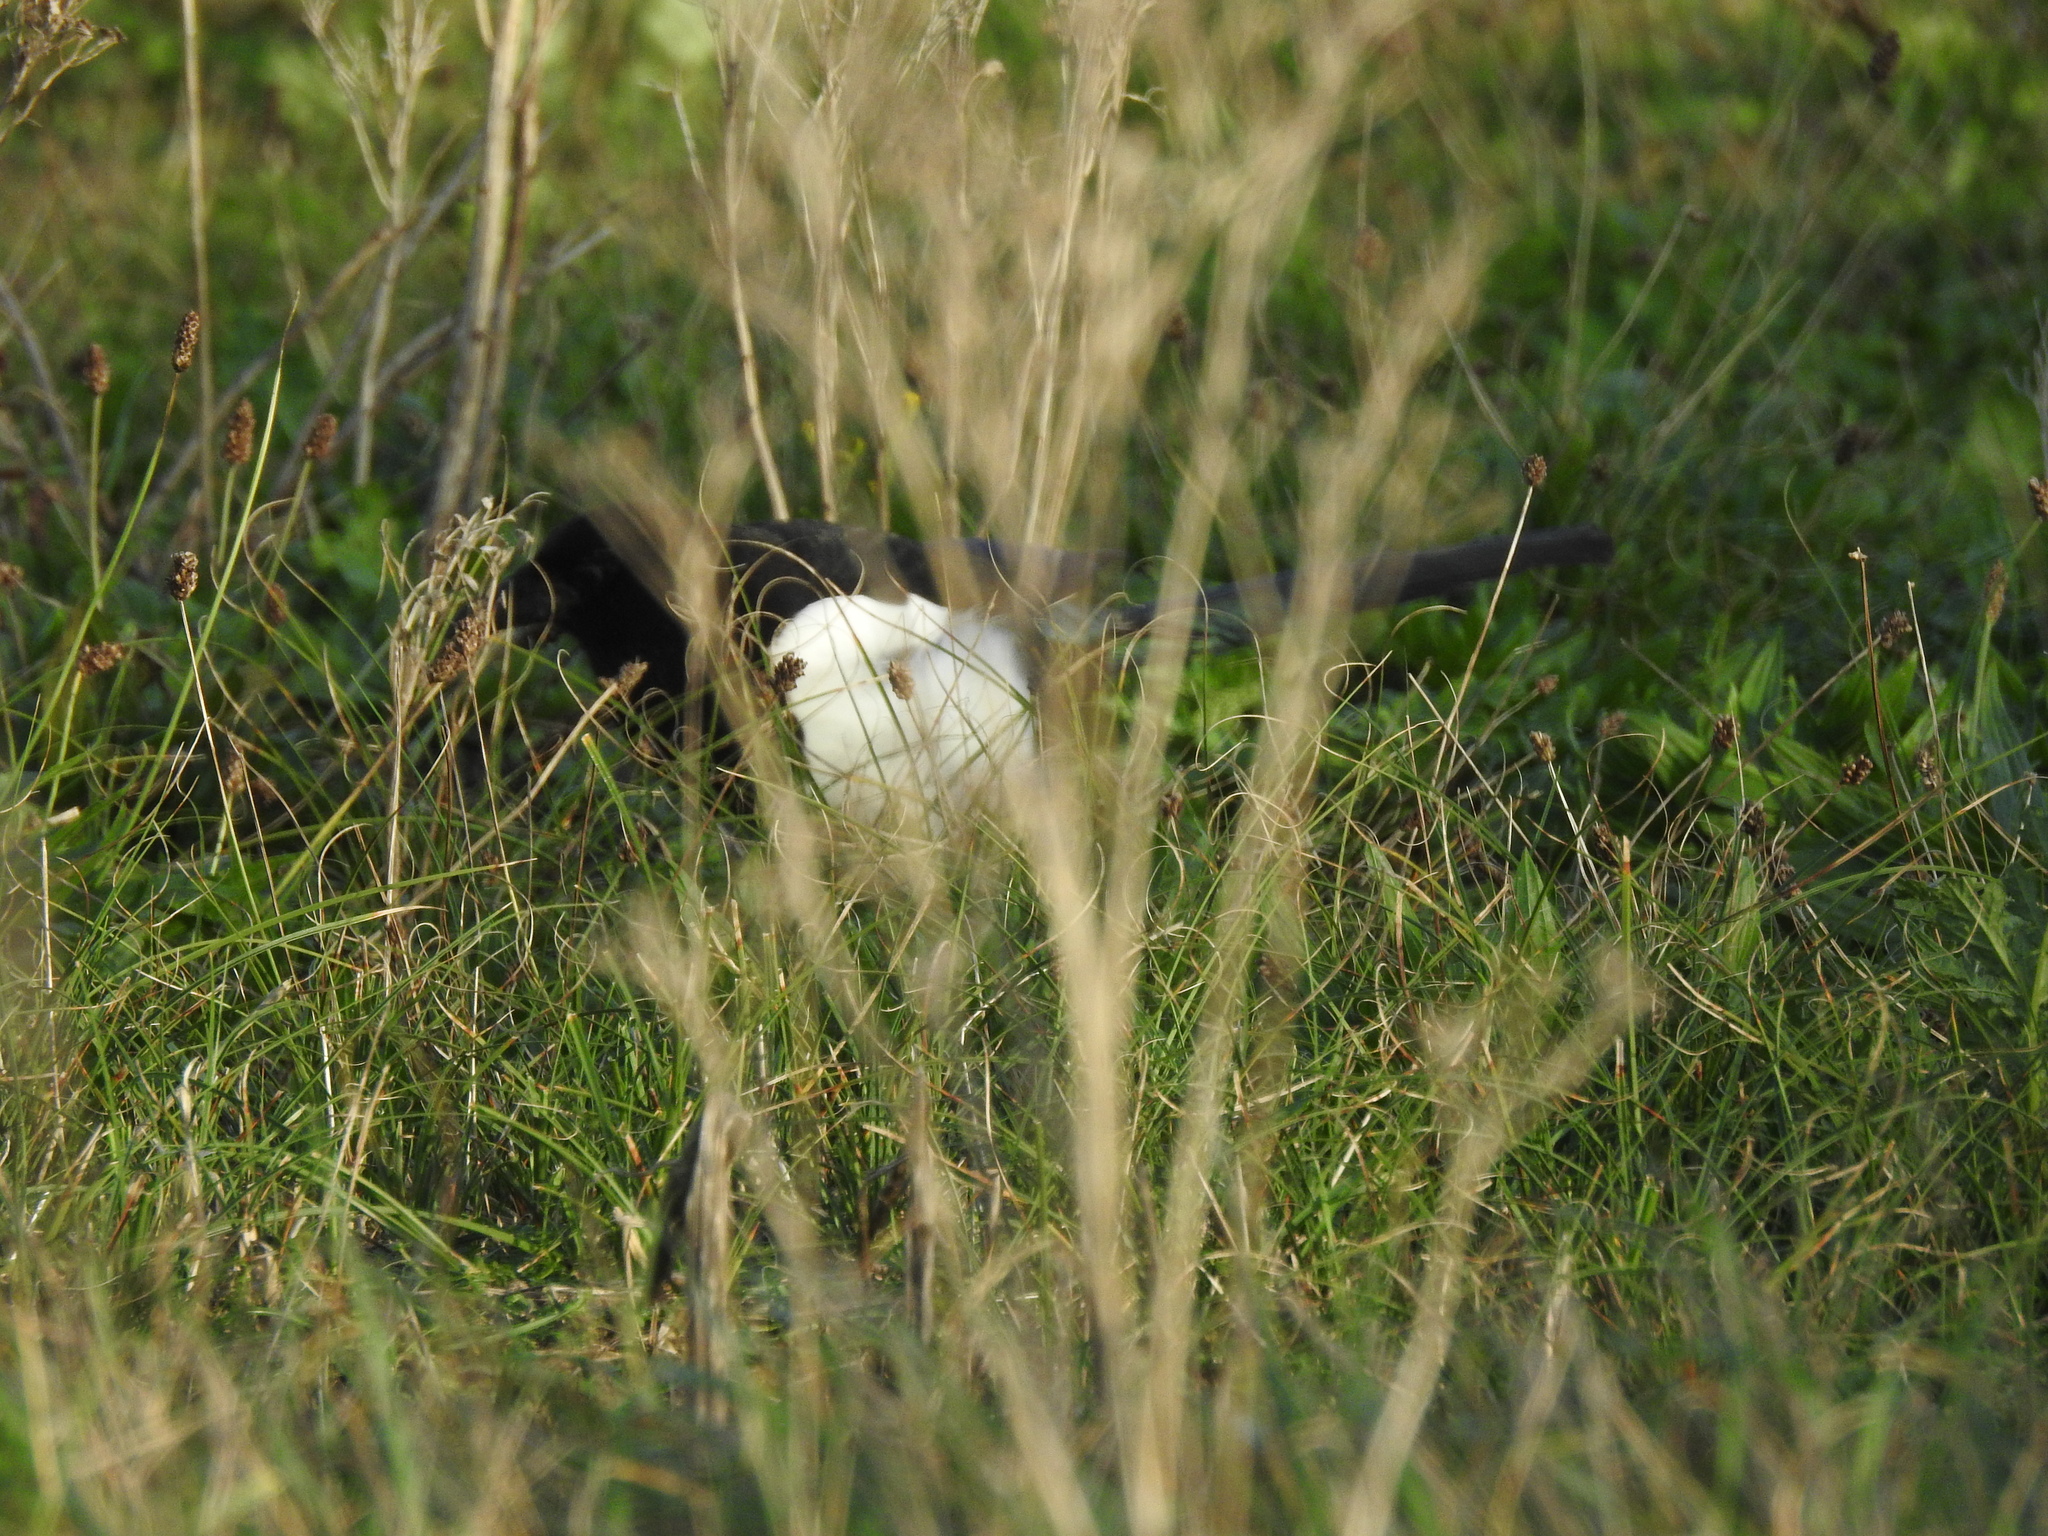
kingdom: Animalia
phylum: Chordata
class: Aves
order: Passeriformes
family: Corvidae
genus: Pica
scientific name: Pica pica
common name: Eurasian magpie
